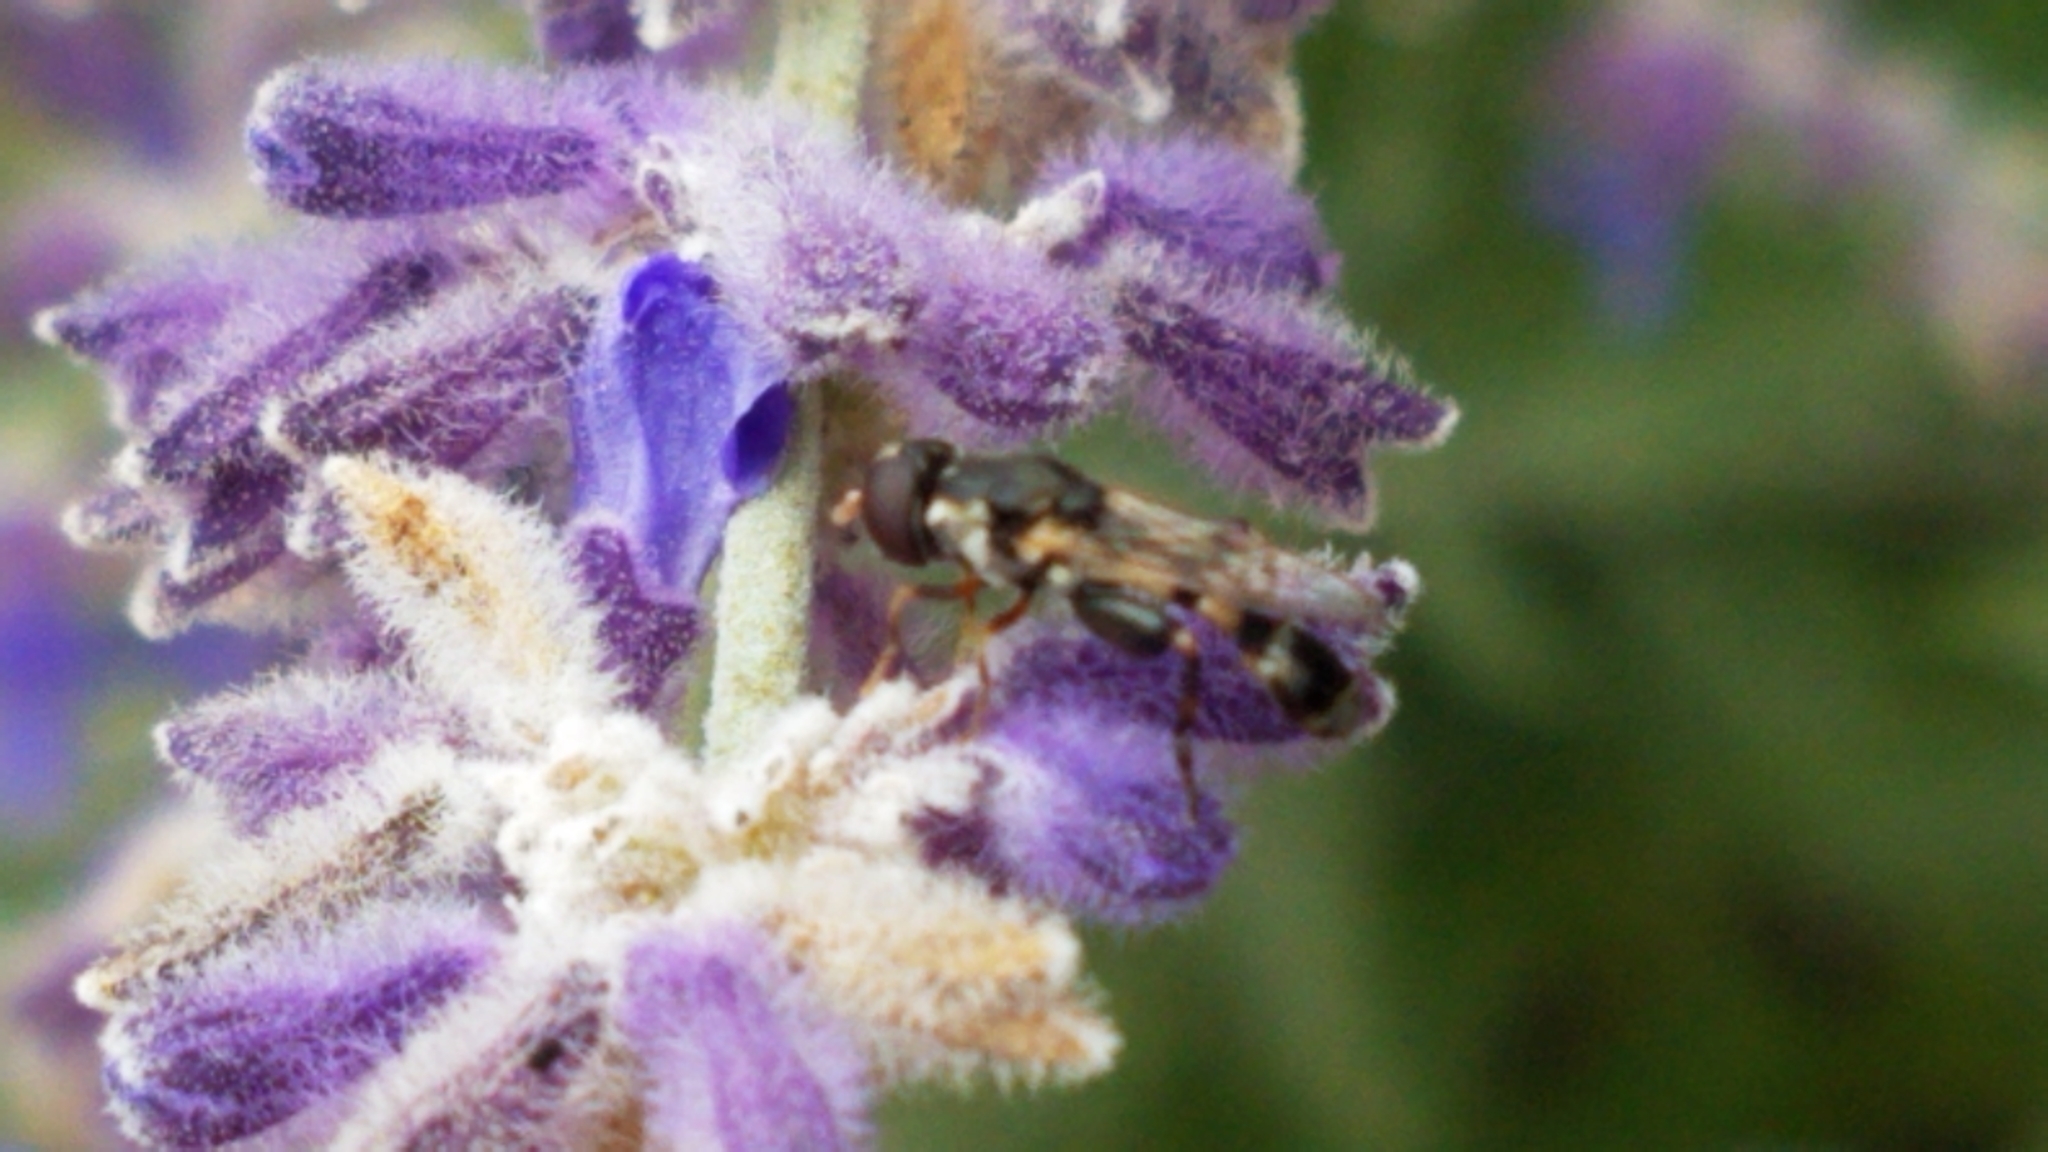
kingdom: Animalia
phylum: Arthropoda
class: Insecta
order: Diptera
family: Syrphidae
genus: Syritta
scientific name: Syritta pipiens
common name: Hover fly
